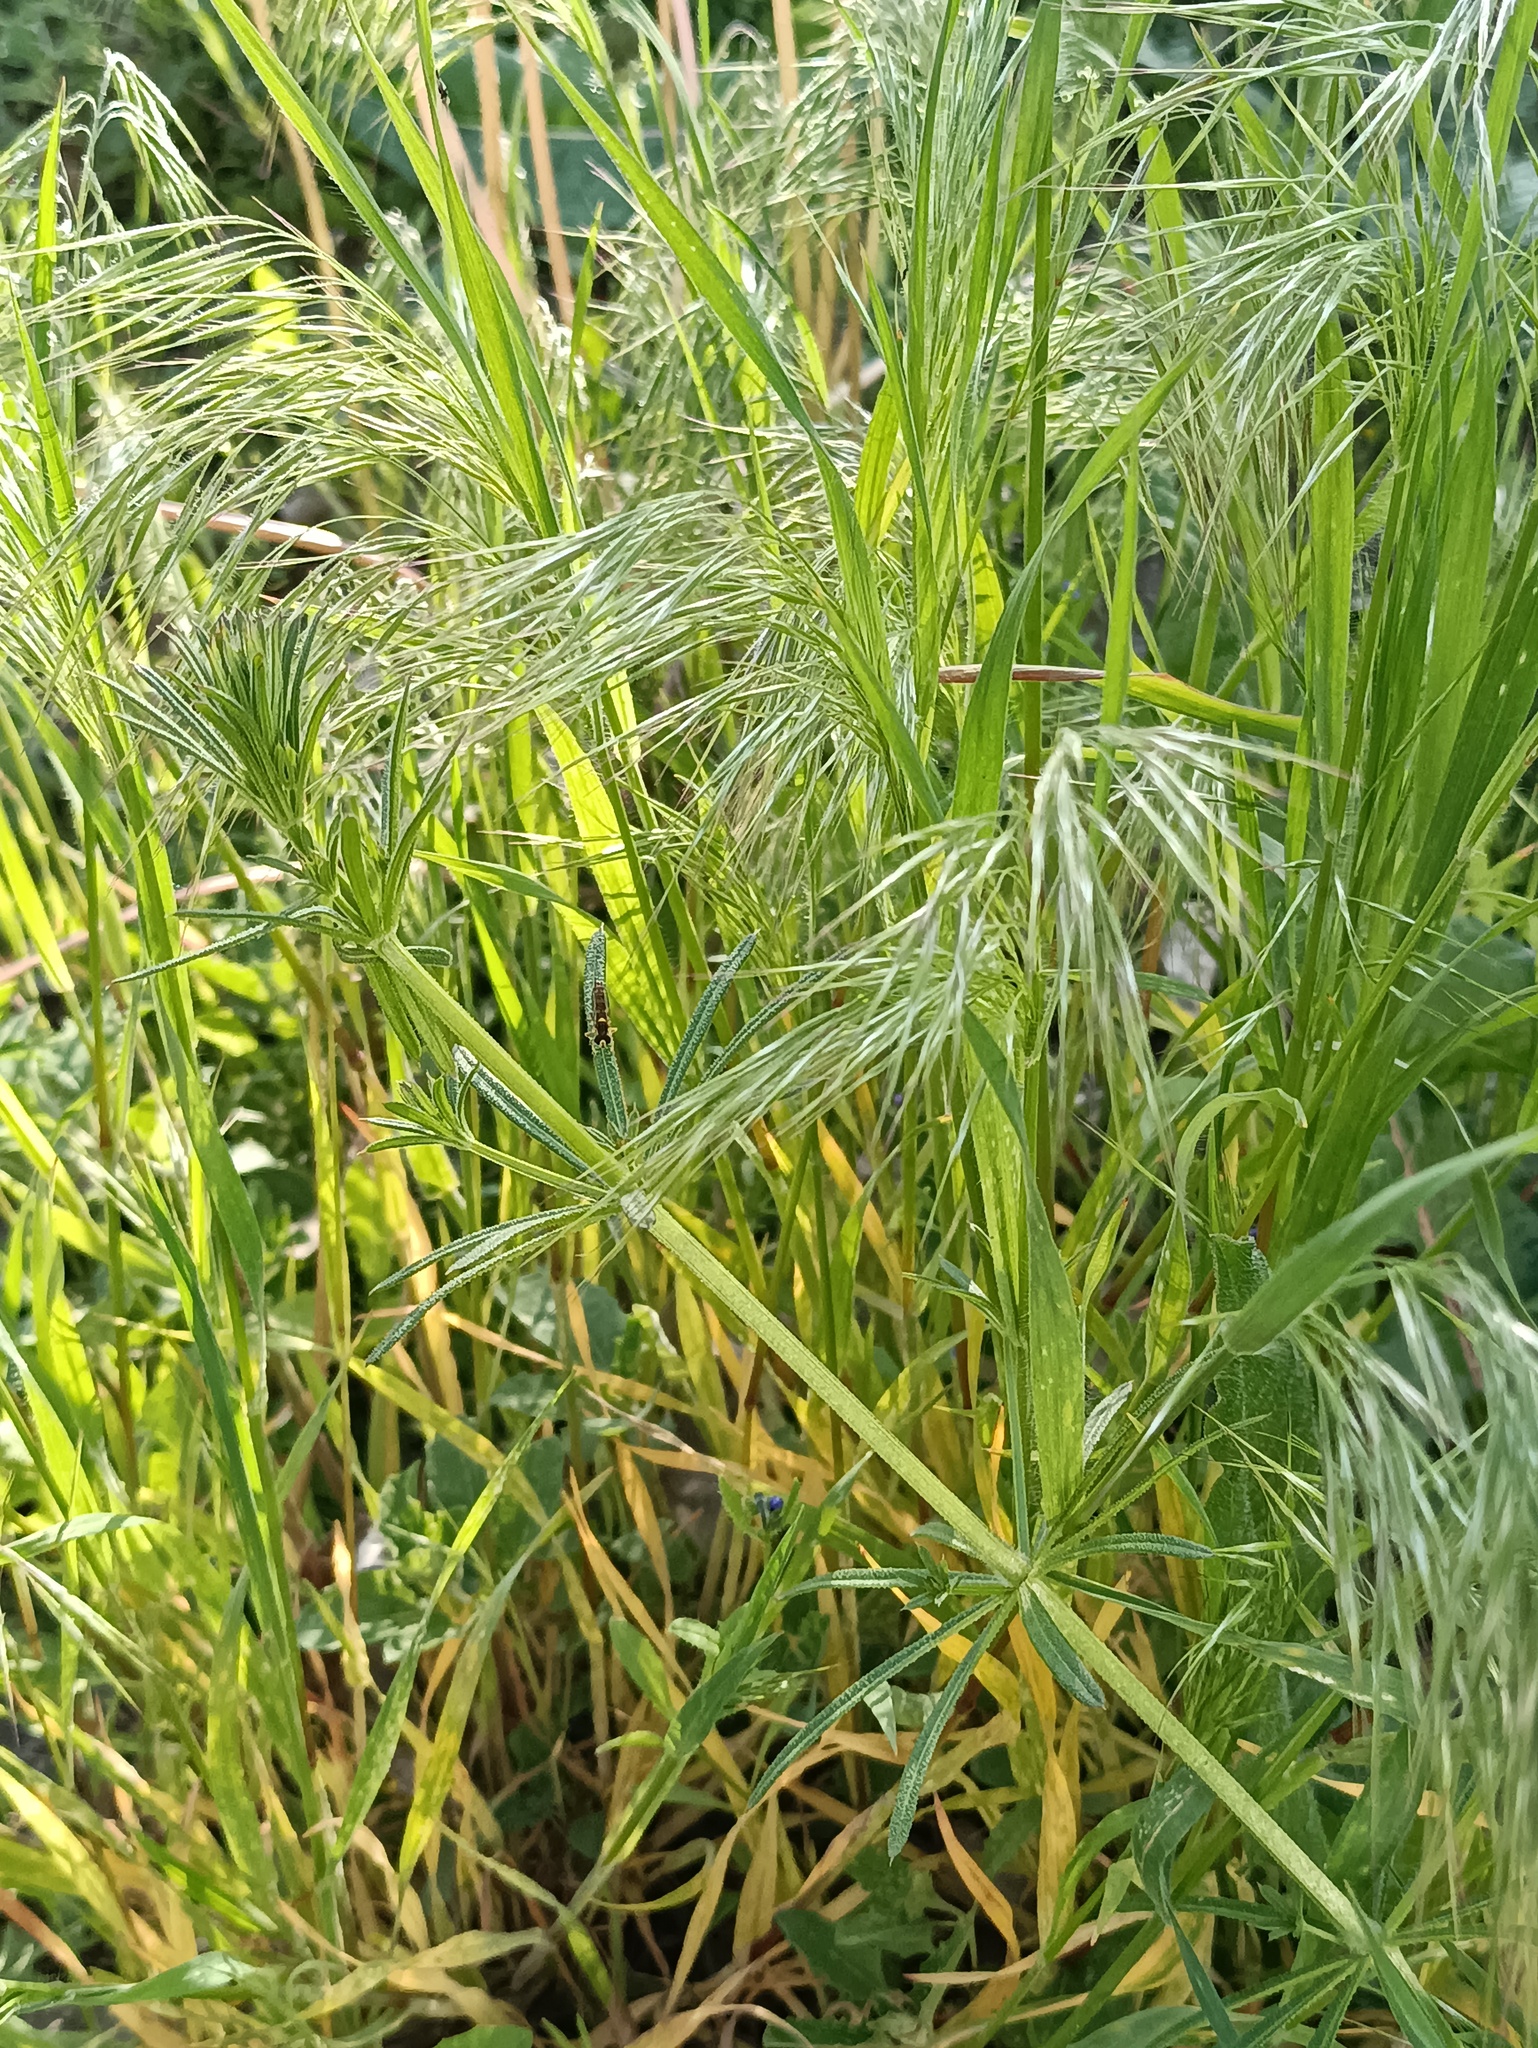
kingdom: Plantae
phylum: Tracheophyta
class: Liliopsida
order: Poales
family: Poaceae
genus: Bromus
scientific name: Bromus tectorum
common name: Cheatgrass
